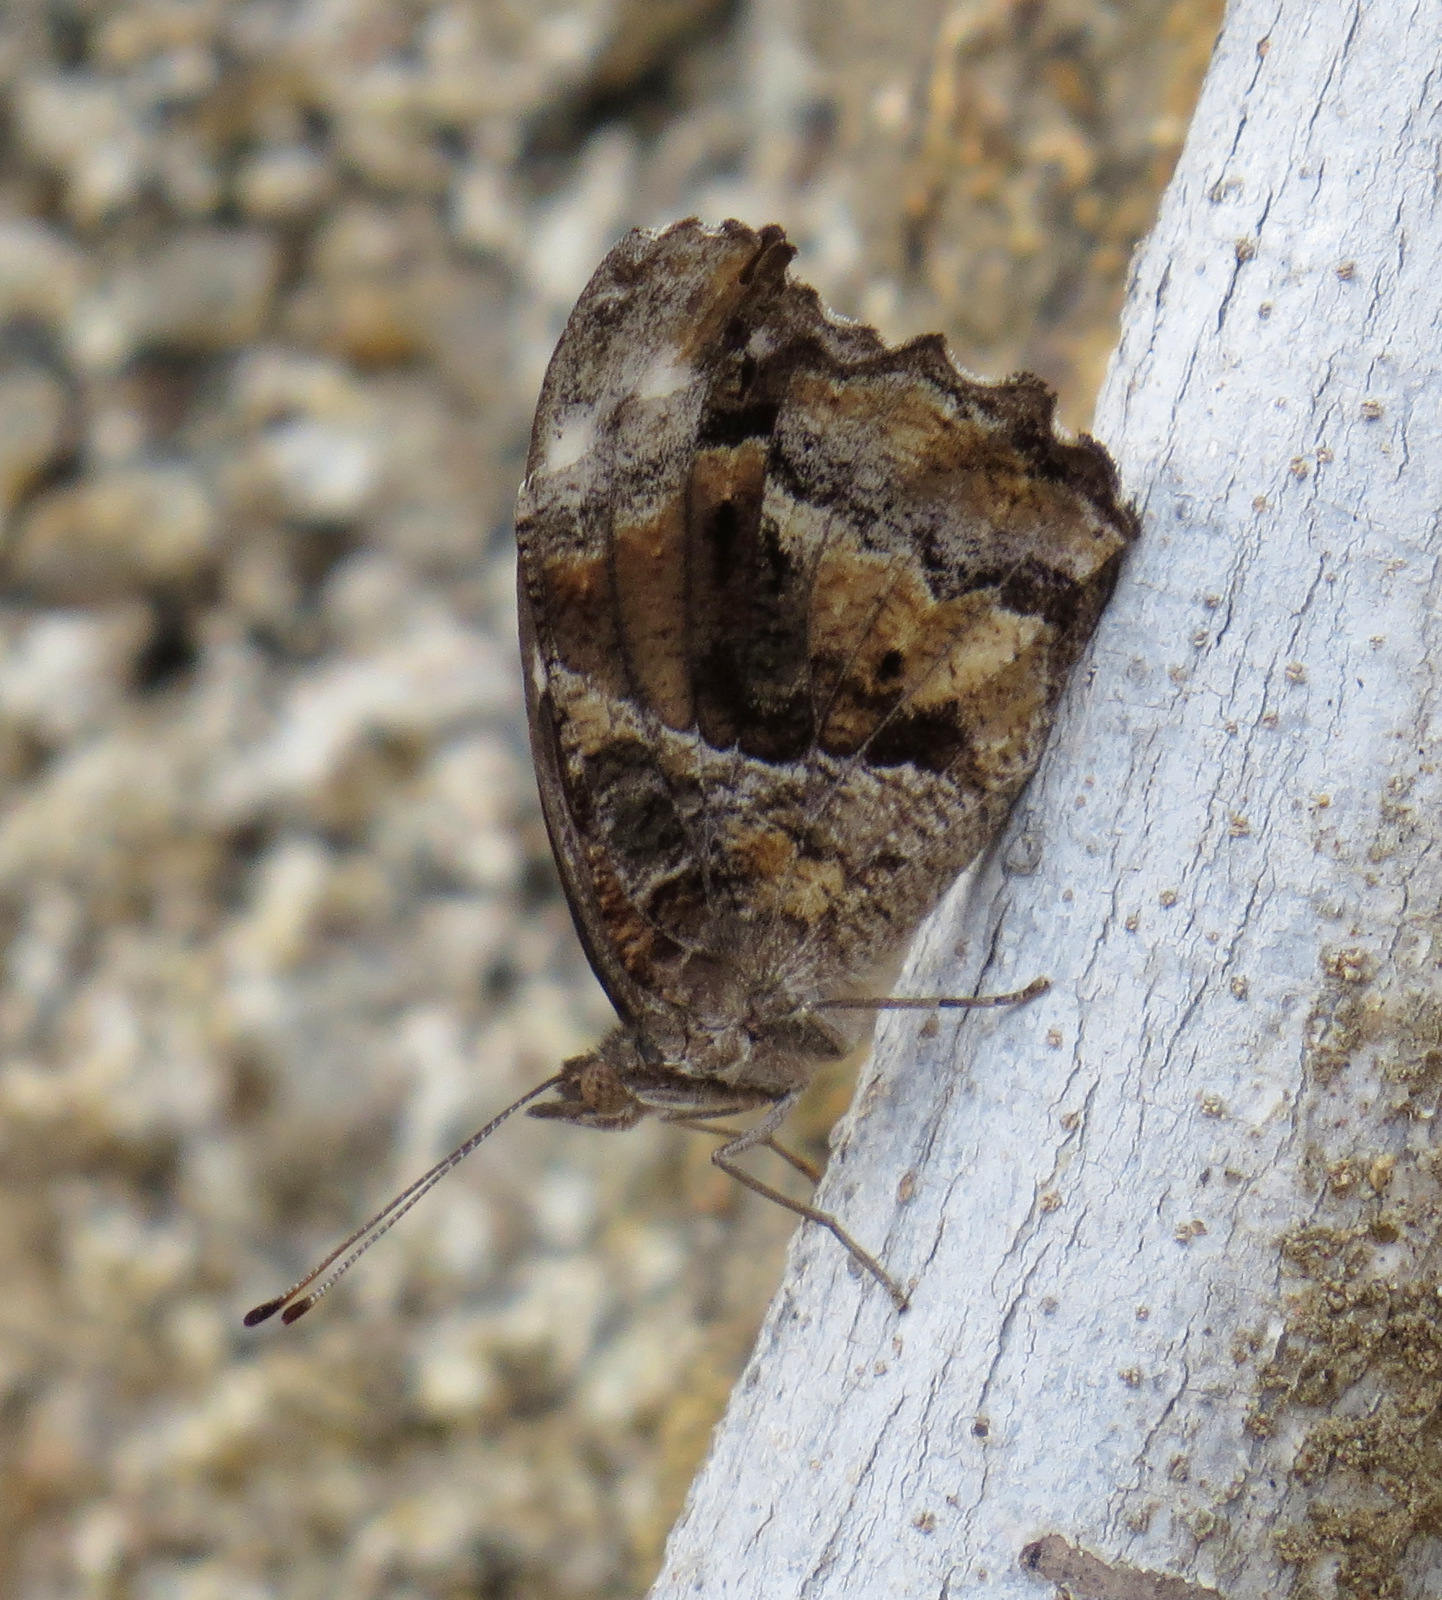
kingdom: Animalia
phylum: Arthropoda
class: Insecta
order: Lepidoptera
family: Nymphalidae
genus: Myscelia
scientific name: Myscelia cyananthe
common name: Blackened bluewing
